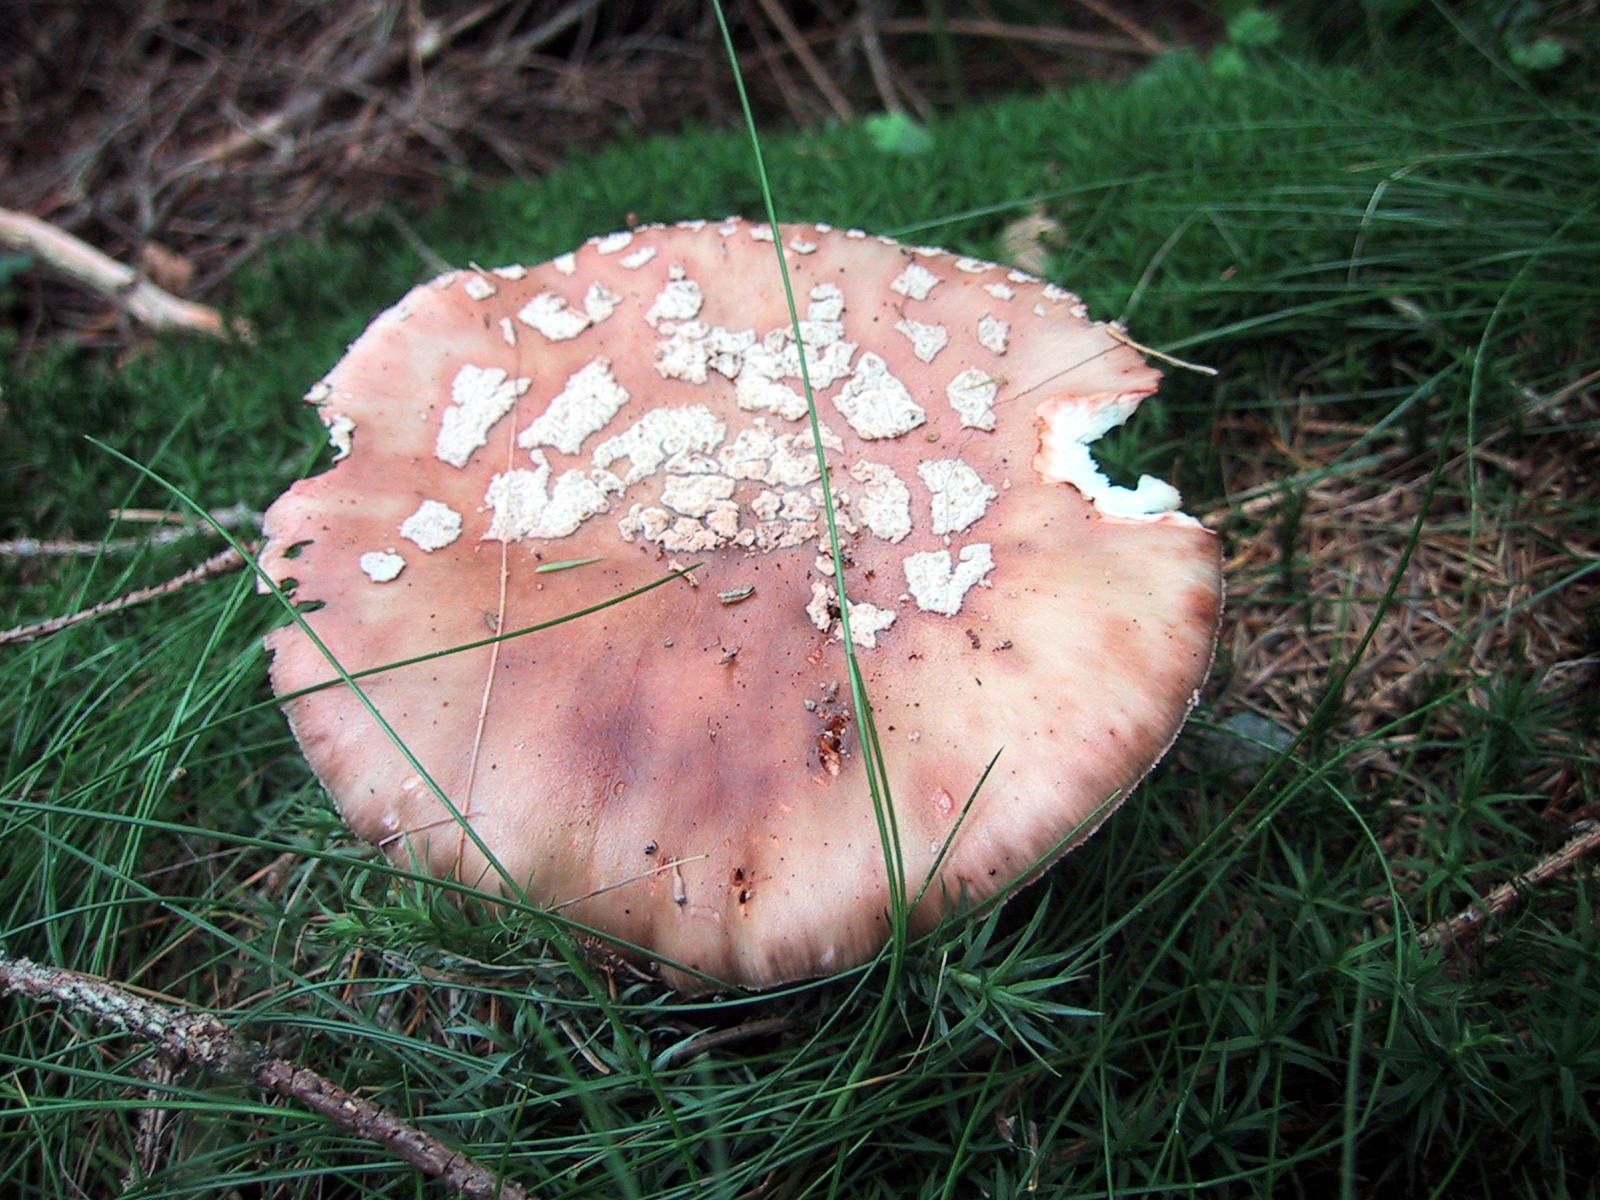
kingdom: Fungi
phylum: Basidiomycota
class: Agaricomycetes
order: Agaricales
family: Amanitaceae
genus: Amanita
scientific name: Amanita rubescens
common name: Blusher
